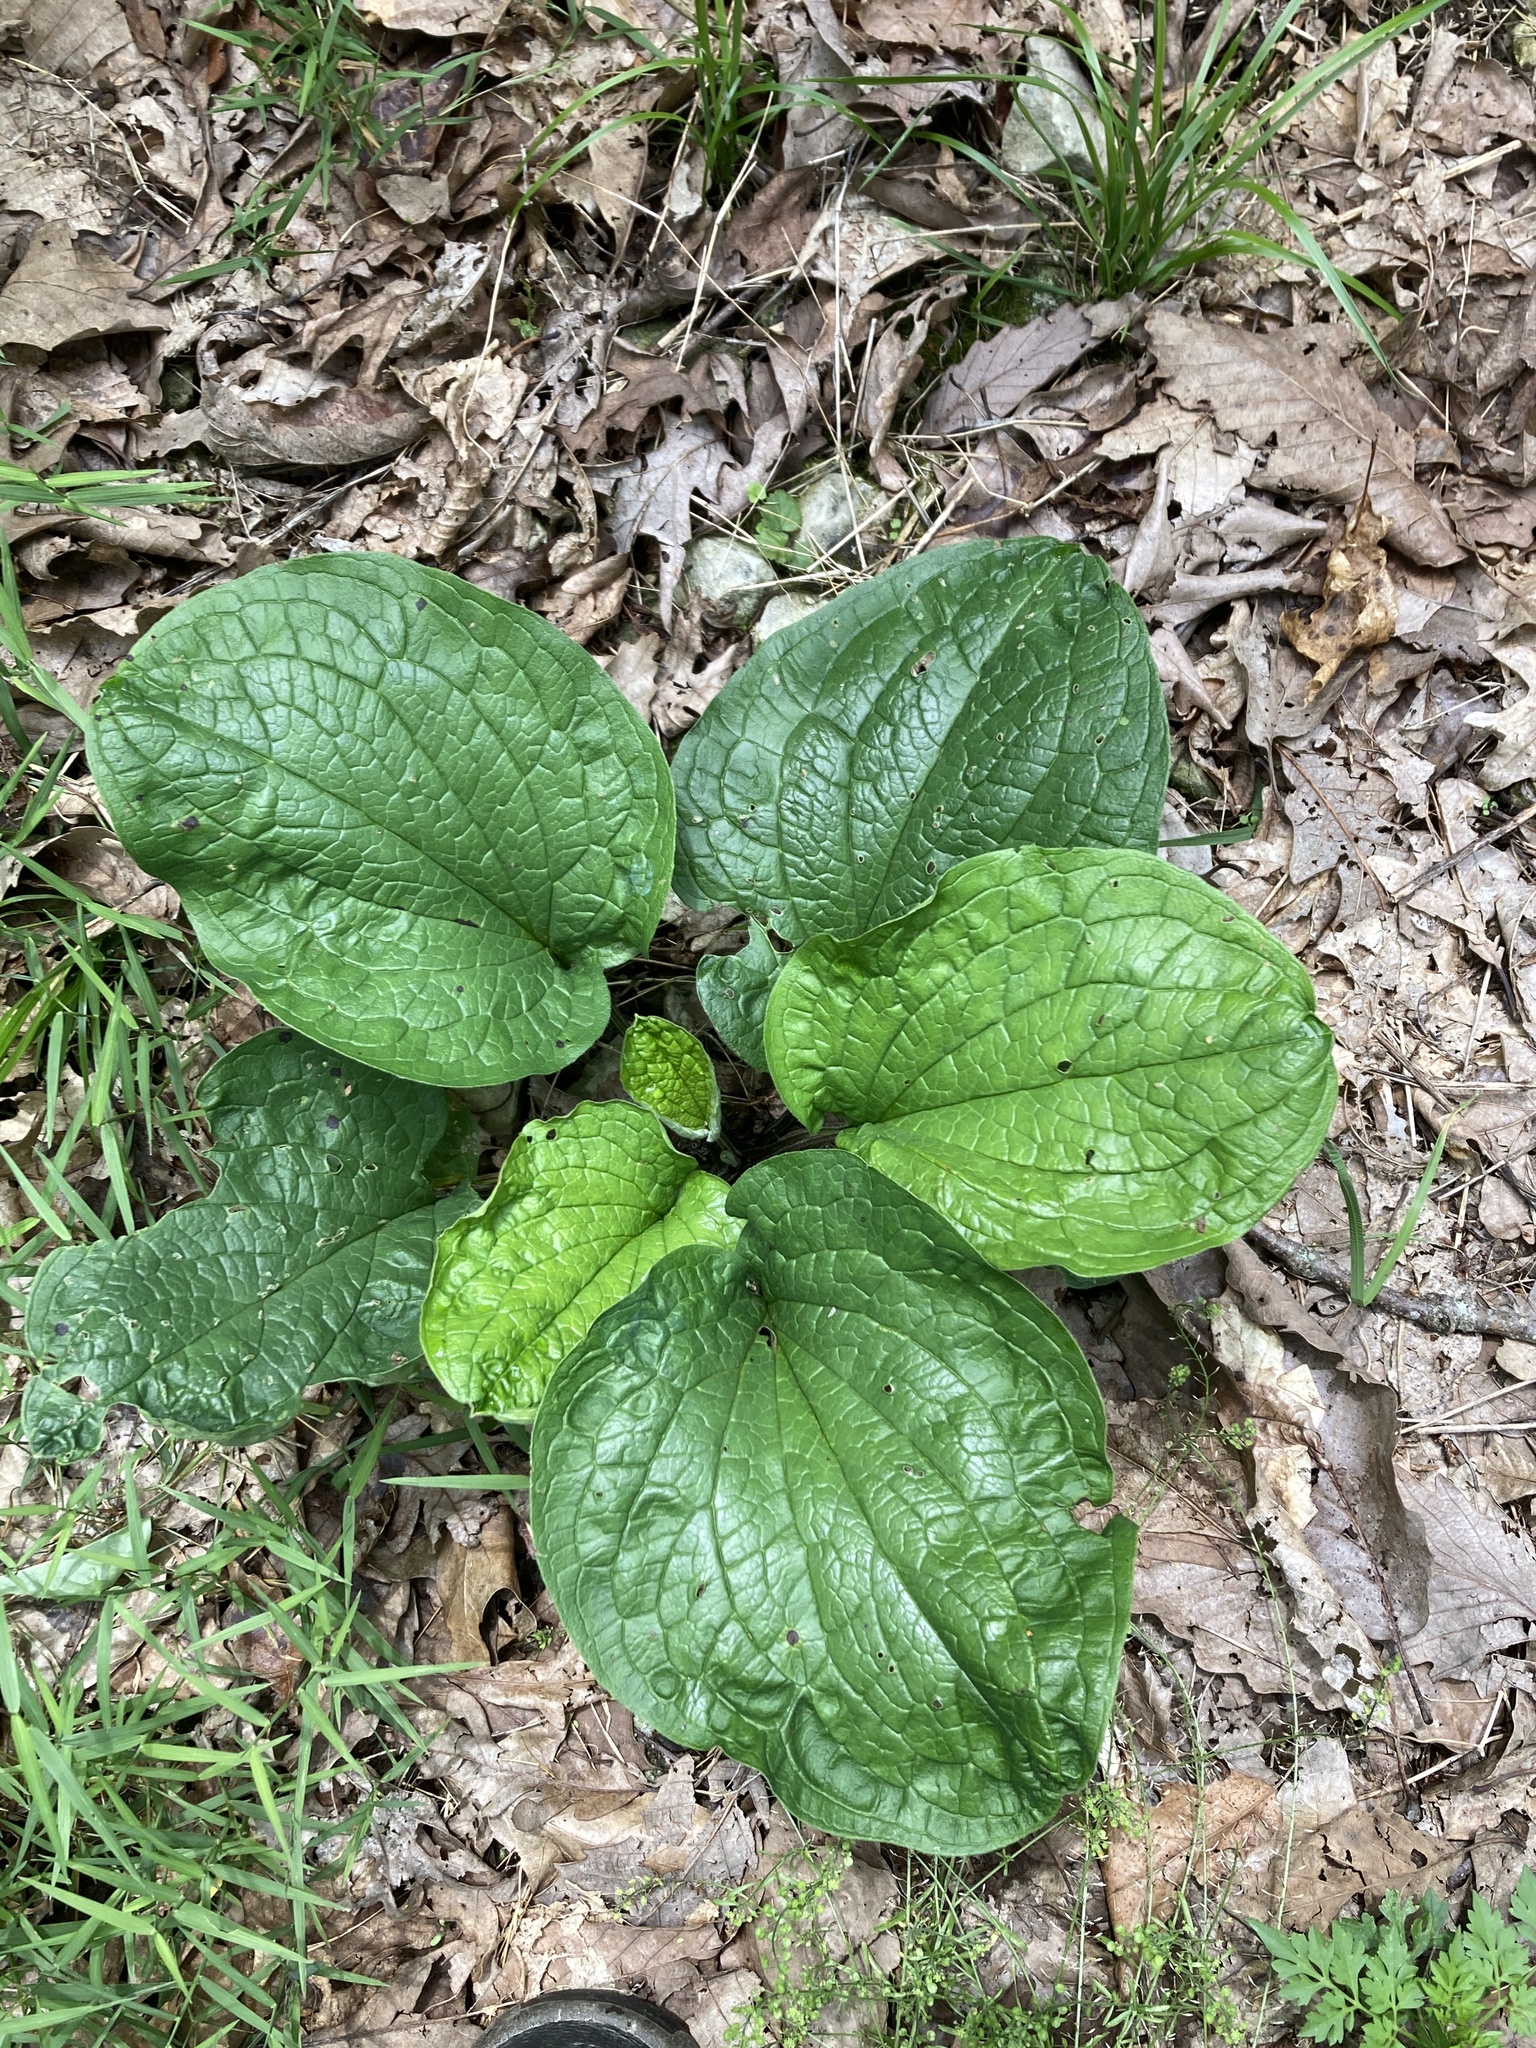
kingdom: Plantae
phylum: Tracheophyta
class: Magnoliopsida
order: Boraginales
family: Boraginaceae
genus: Hackelia
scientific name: Hackelia virginiana
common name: Beggar's-lice
